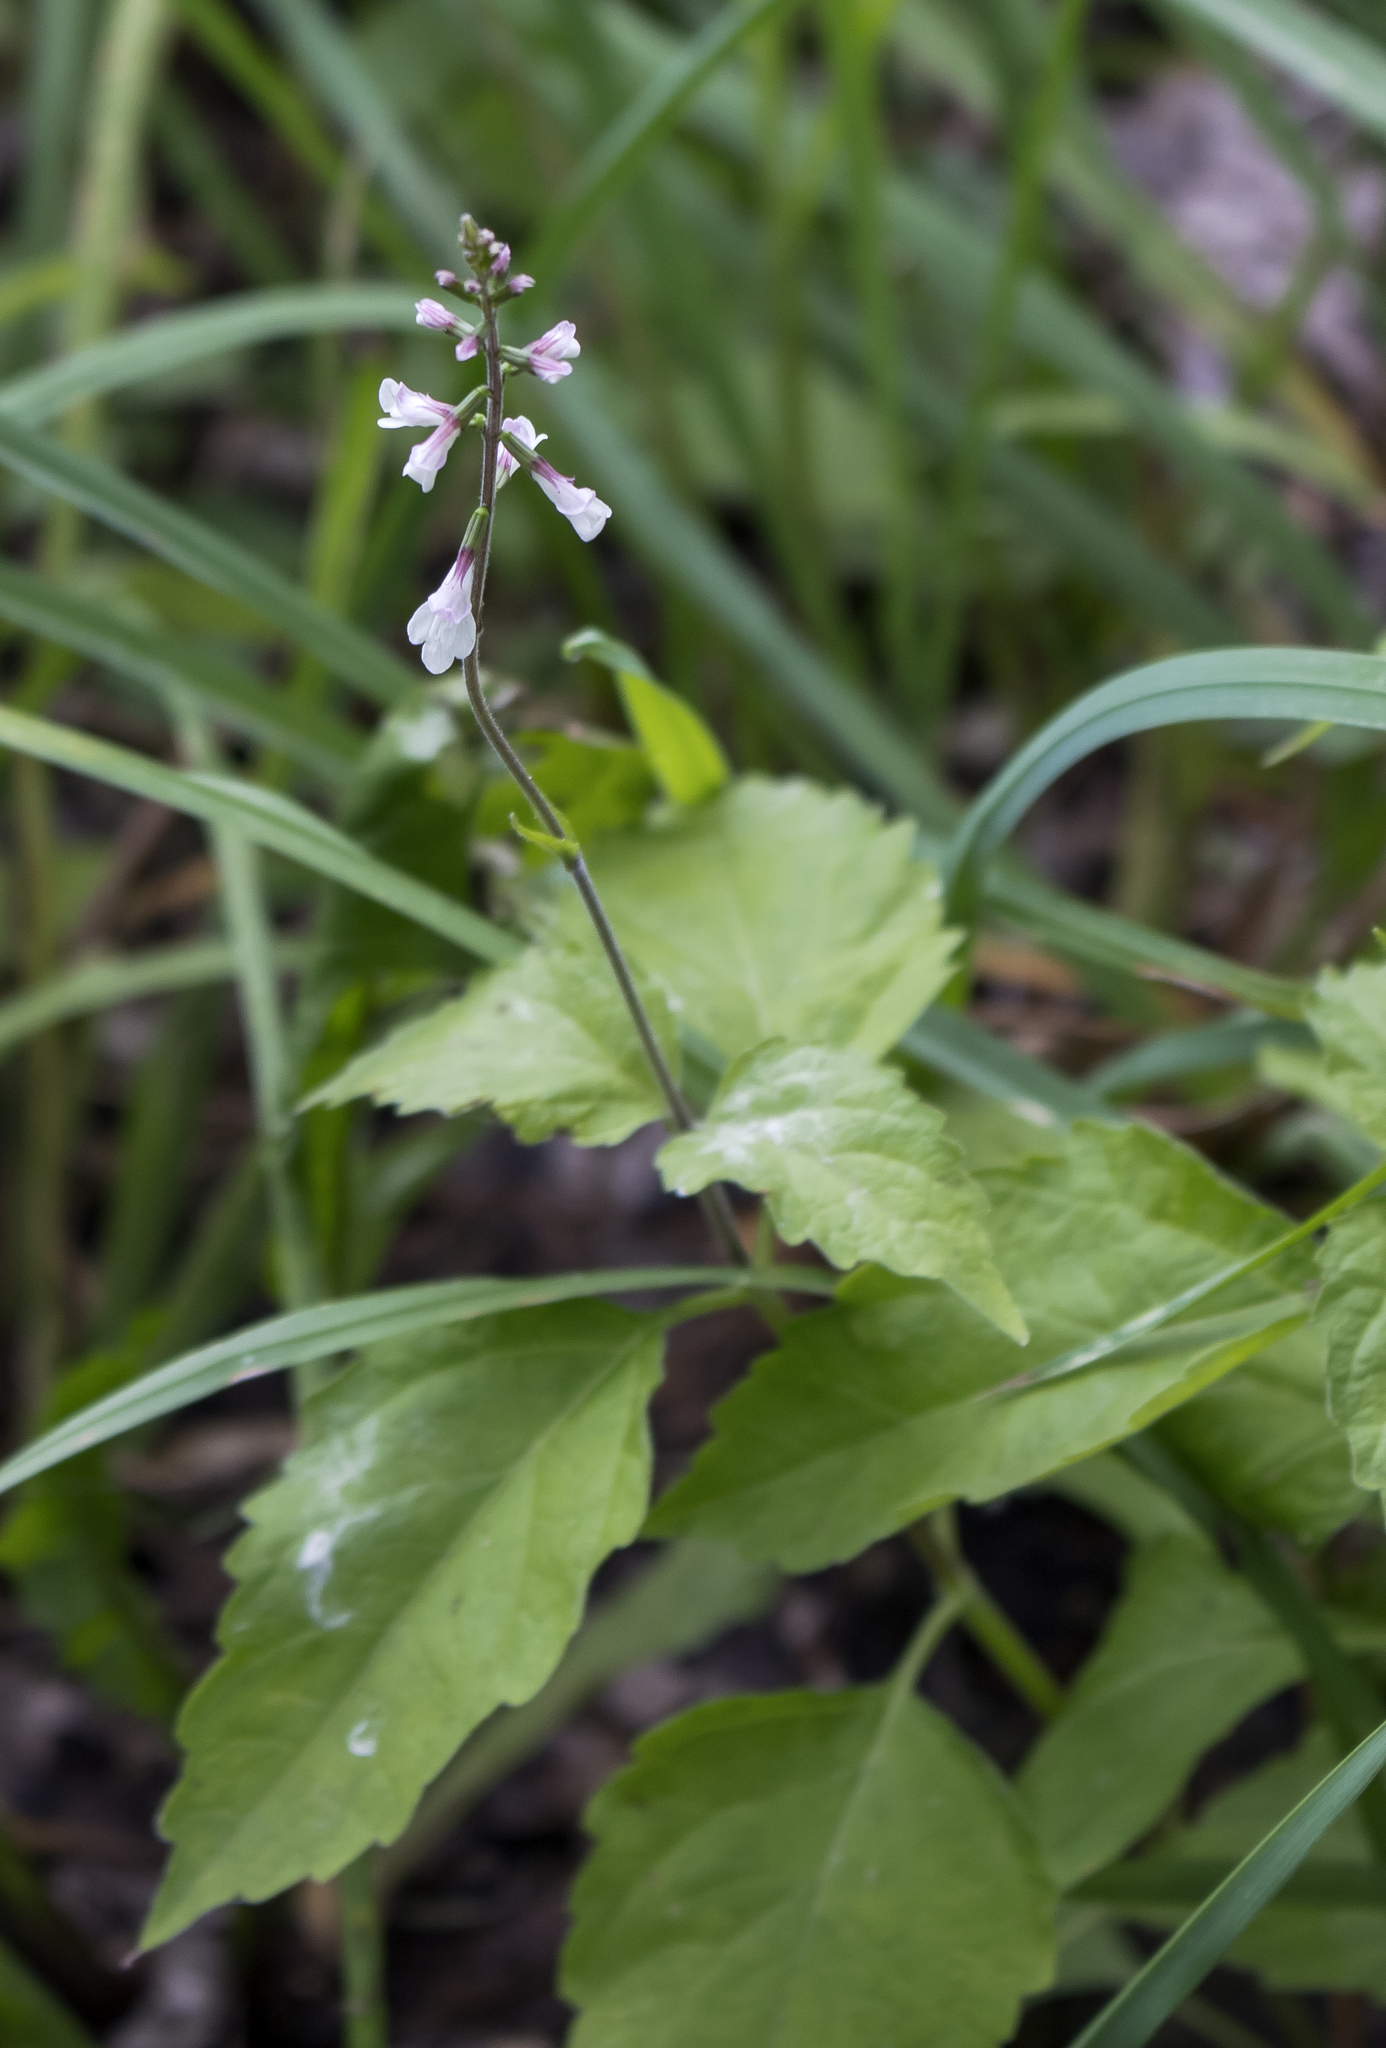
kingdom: Plantae
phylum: Tracheophyta
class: Magnoliopsida
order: Lamiales
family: Phrymaceae
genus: Phryma
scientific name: Phryma leptostachya
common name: American lopseed
